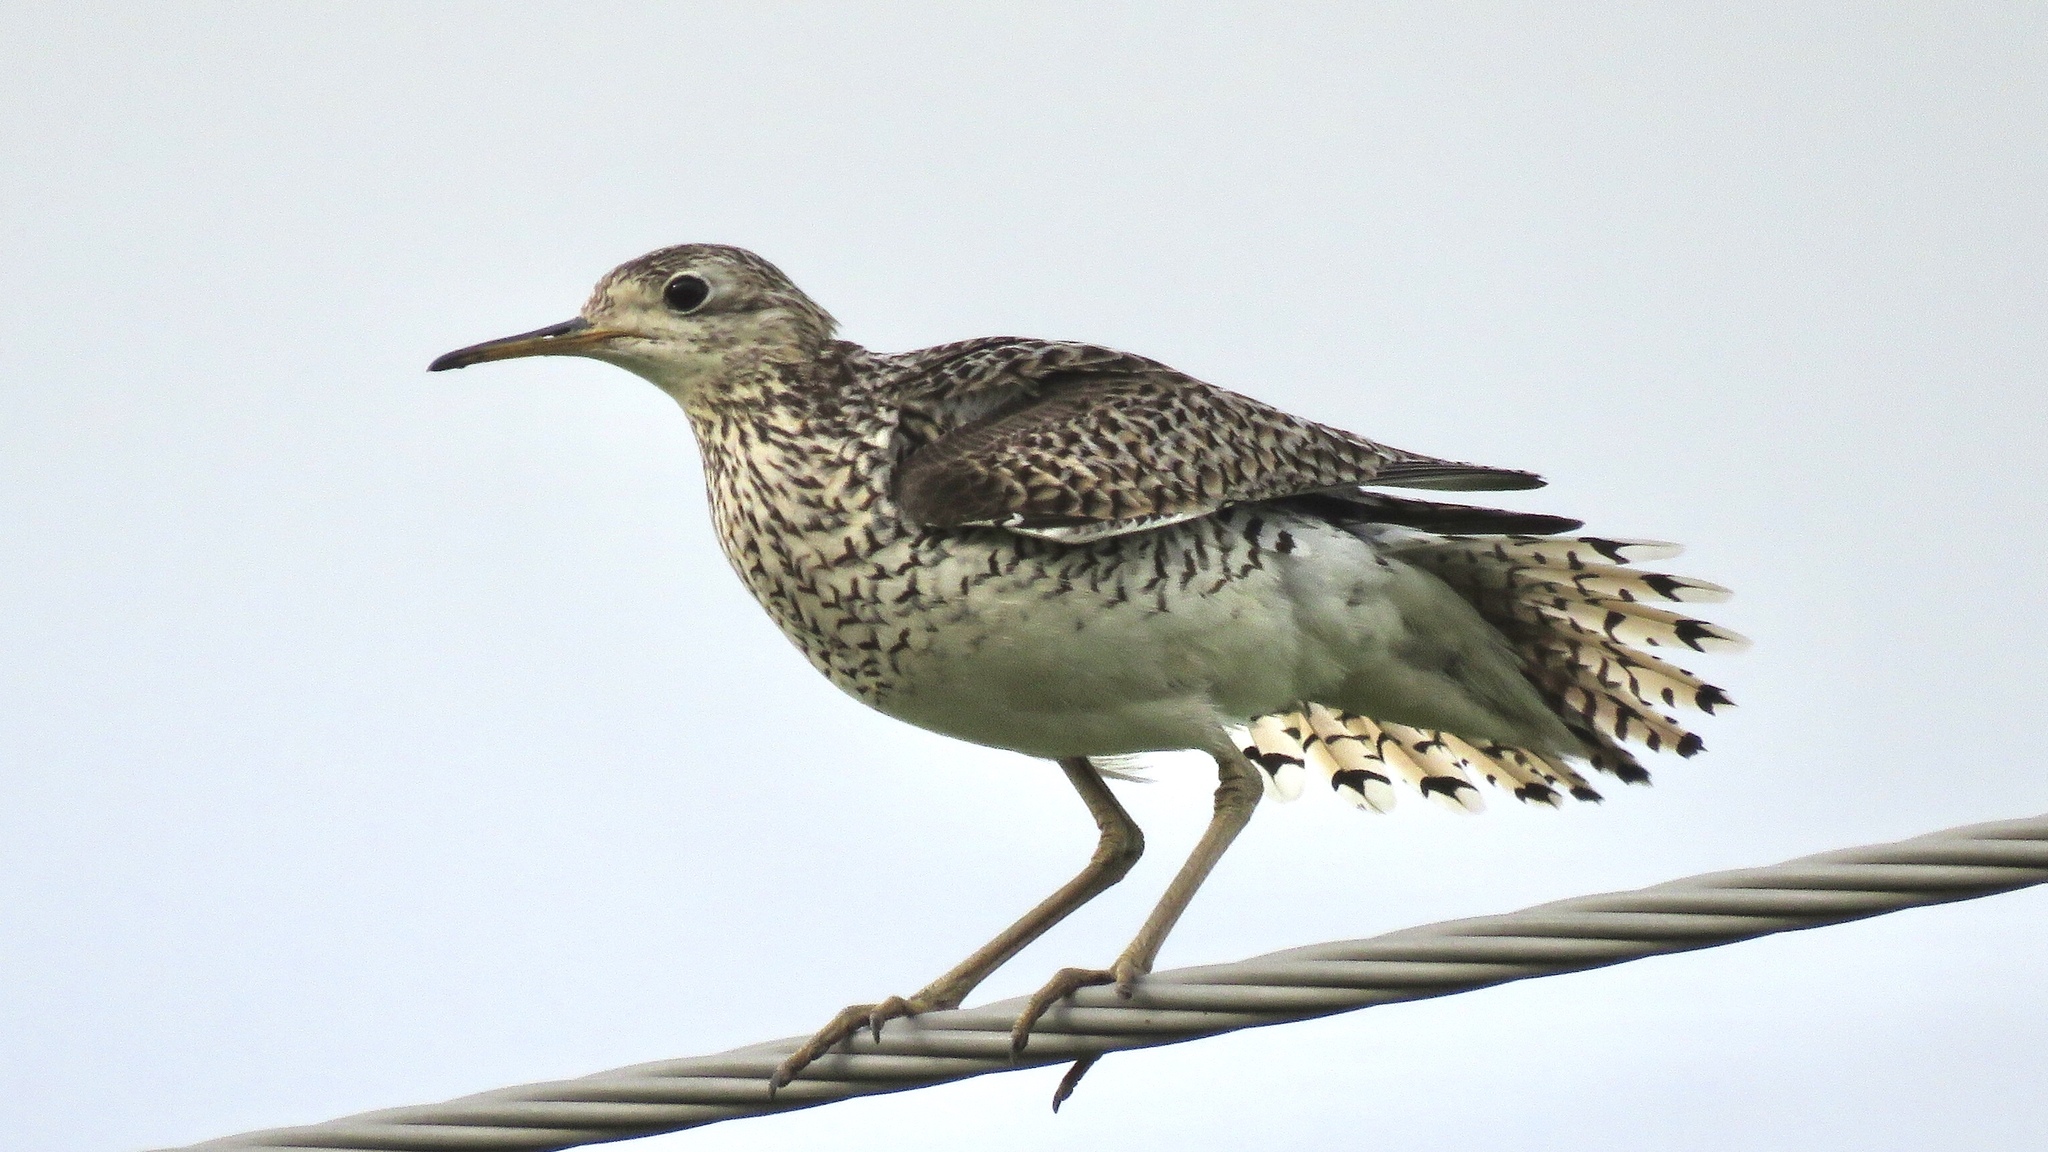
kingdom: Animalia
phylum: Chordata
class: Aves
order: Charadriiformes
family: Scolopacidae
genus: Bartramia
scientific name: Bartramia longicauda
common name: Upland sandpiper
